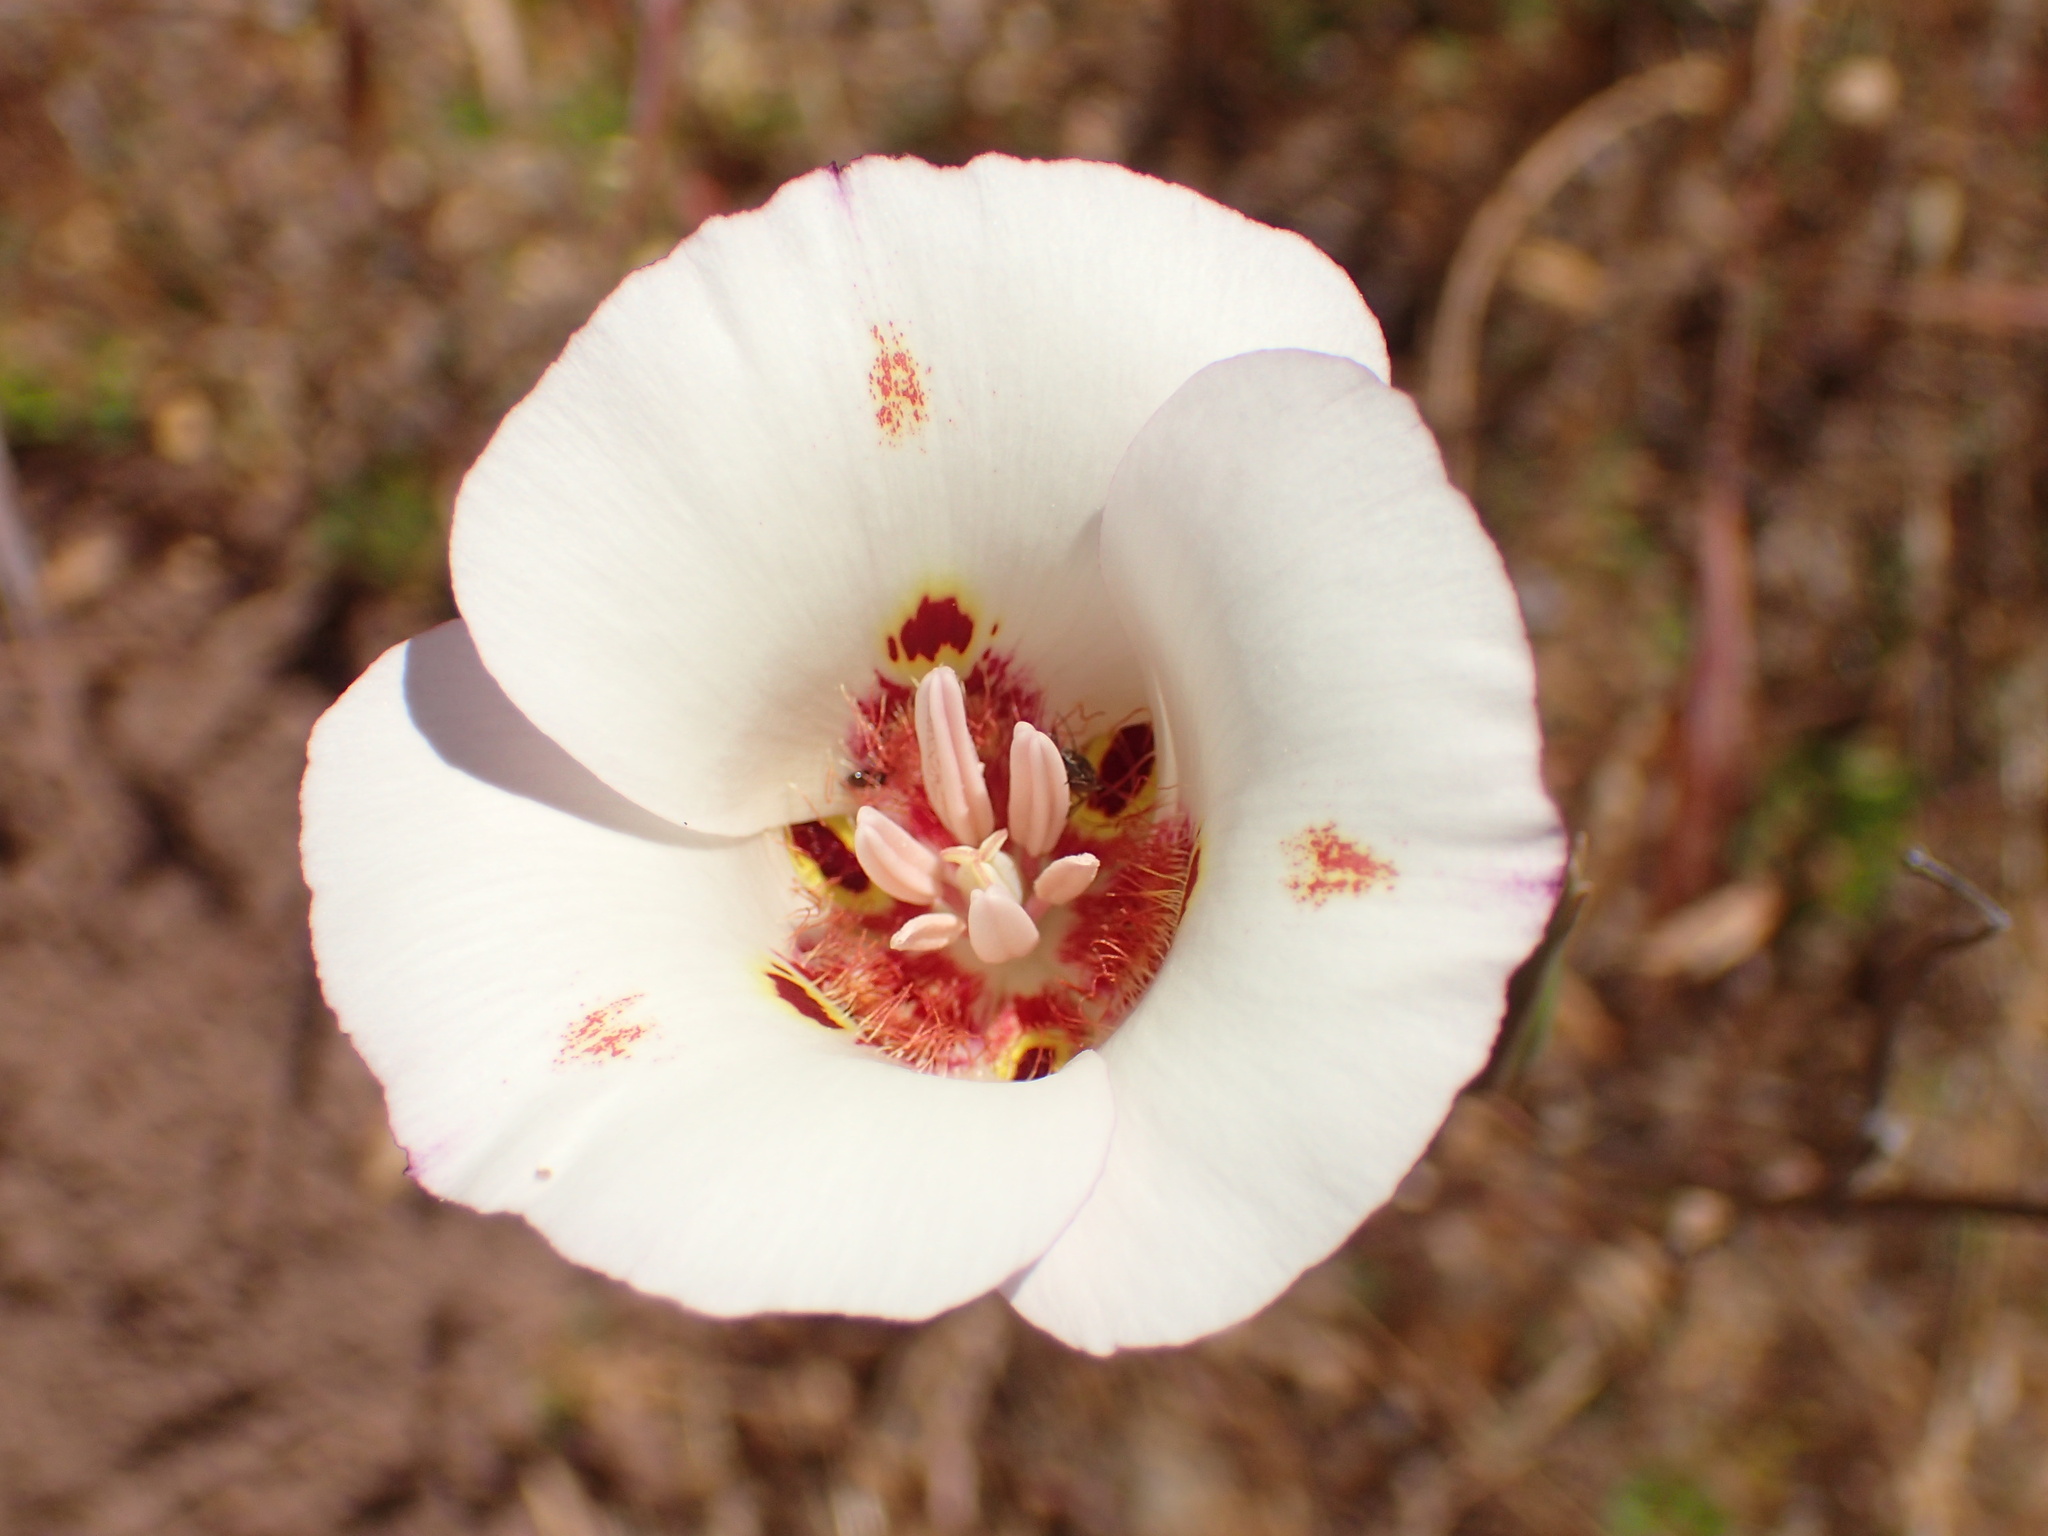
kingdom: Plantae
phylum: Tracheophyta
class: Liliopsida
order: Liliales
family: Liliaceae
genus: Calochortus
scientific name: Calochortus venustus
